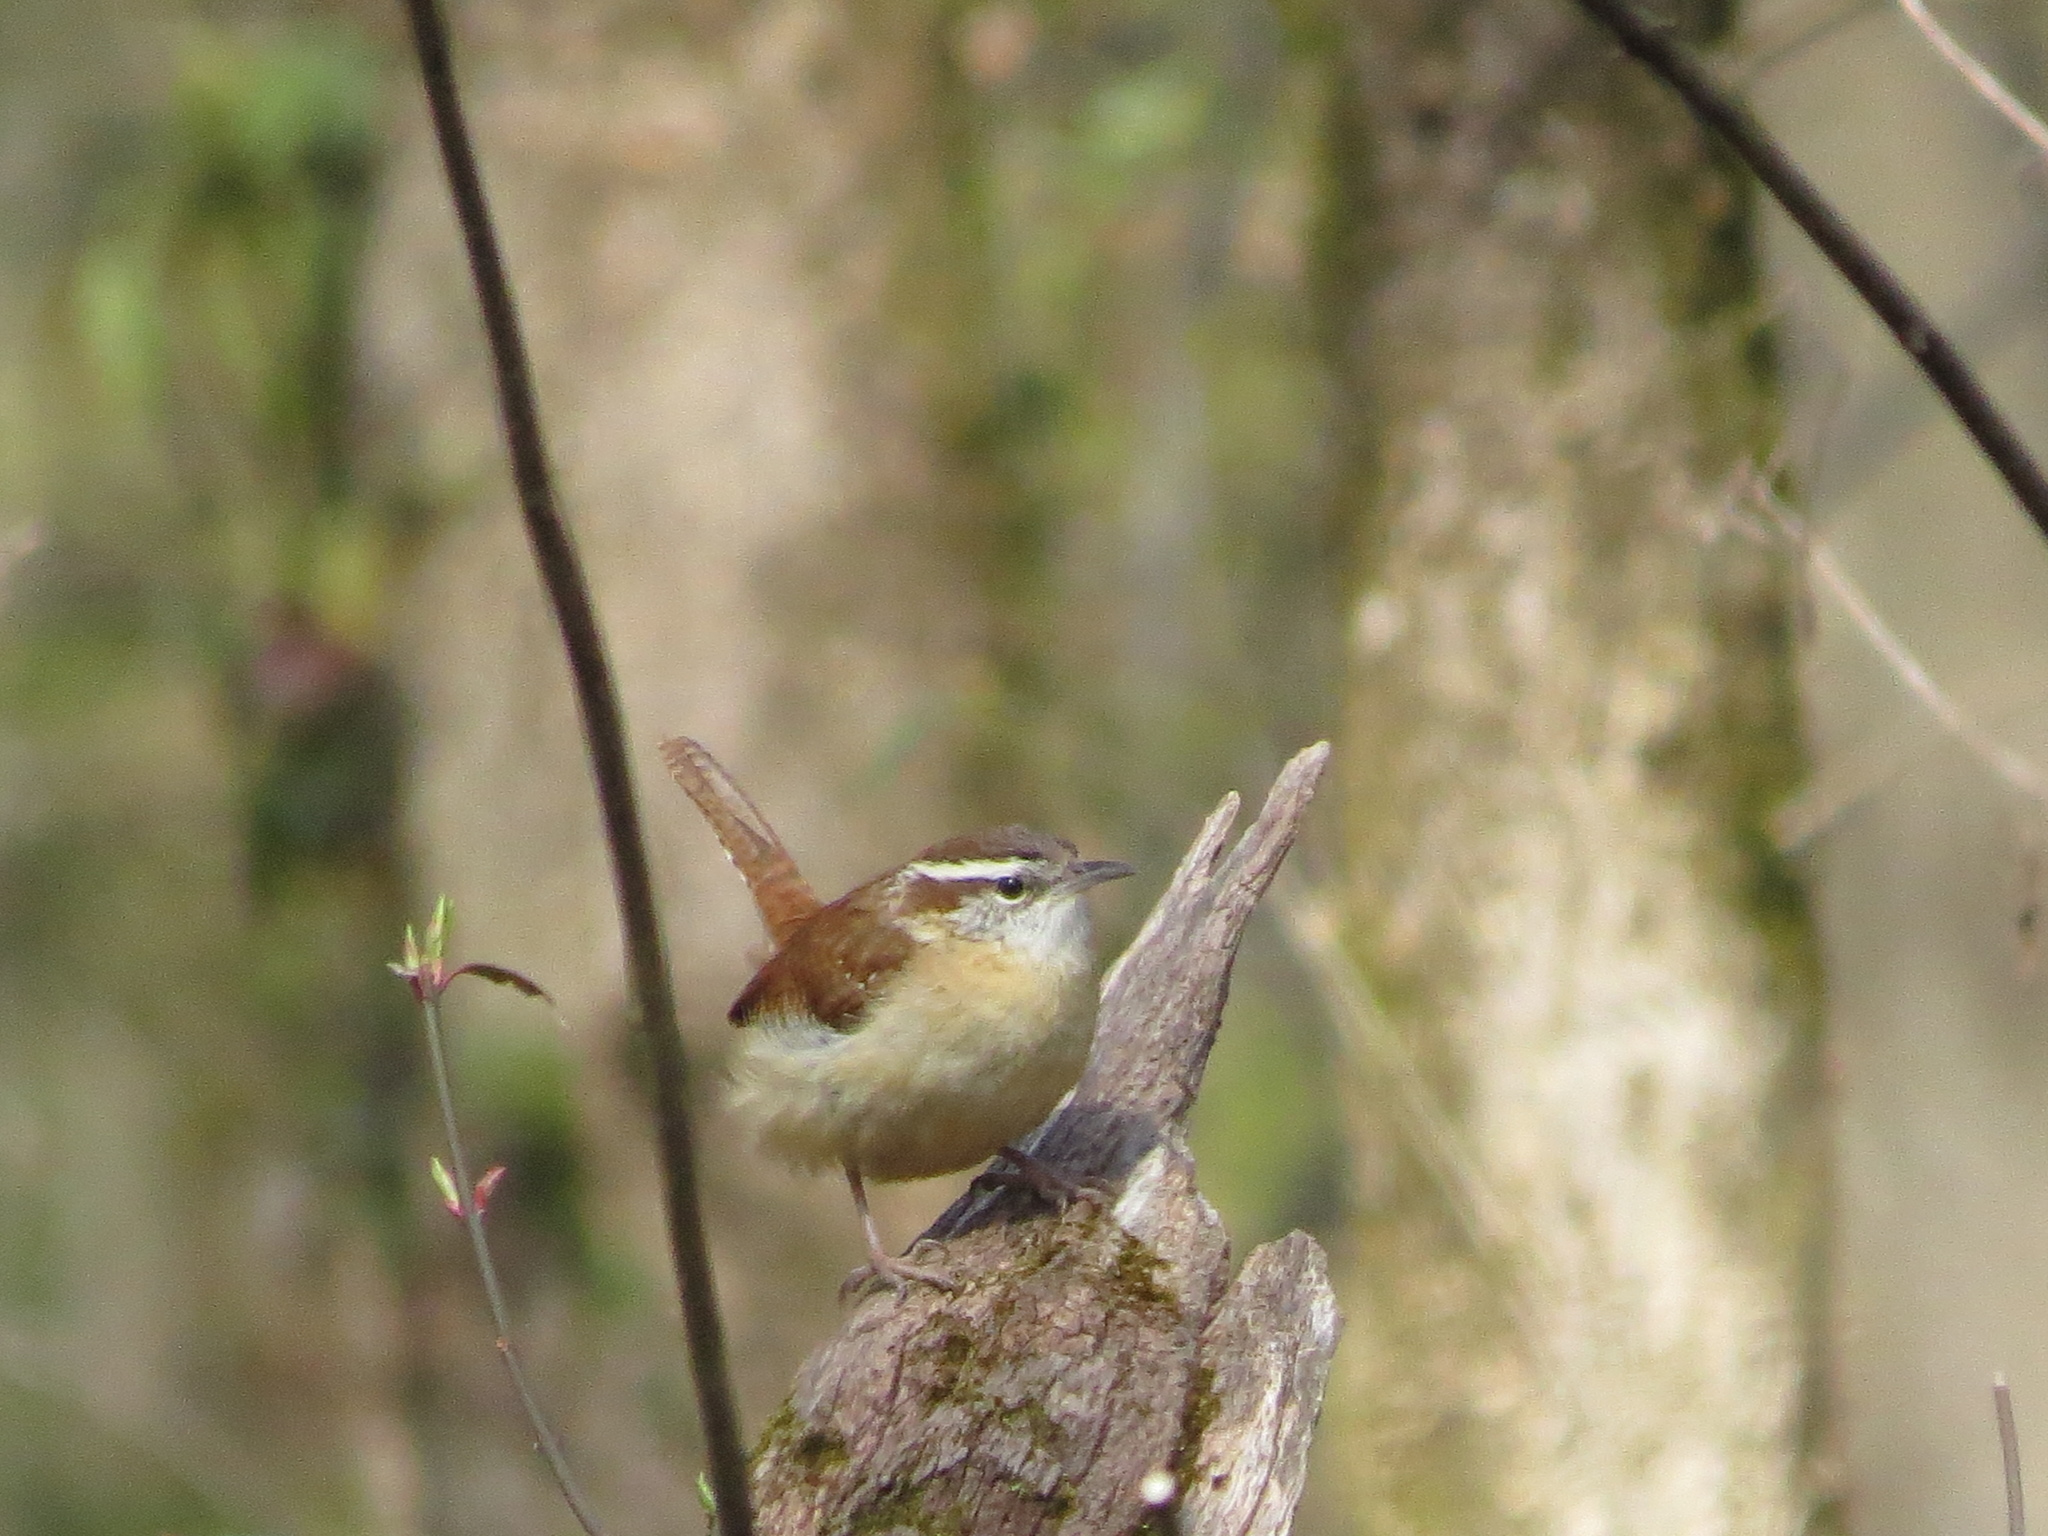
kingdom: Animalia
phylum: Chordata
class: Aves
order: Passeriformes
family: Troglodytidae
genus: Thryothorus
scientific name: Thryothorus ludovicianus
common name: Carolina wren
